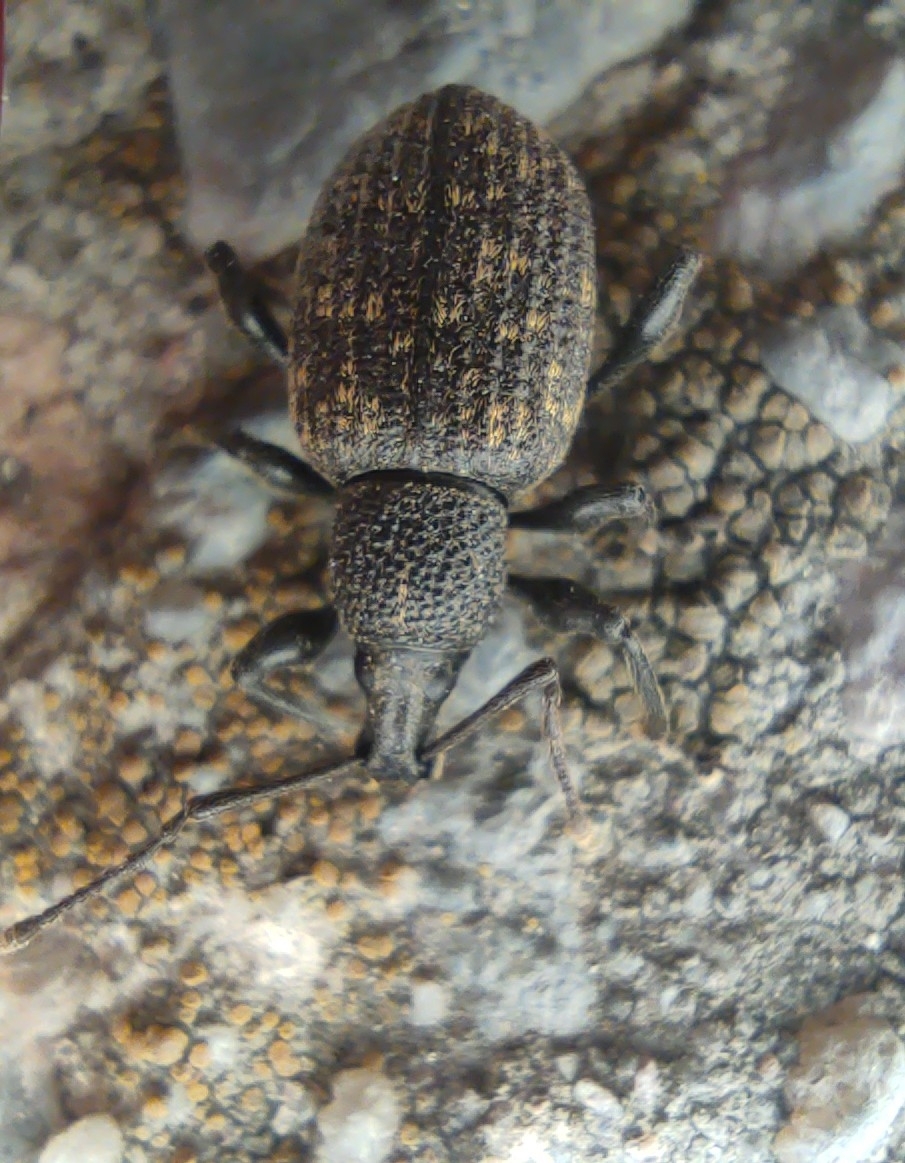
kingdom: Animalia
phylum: Arthropoda
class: Insecta
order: Coleoptera
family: Curculionidae
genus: Otiorhynchus
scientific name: Otiorhynchus sulcatus
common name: Black vine weevil
